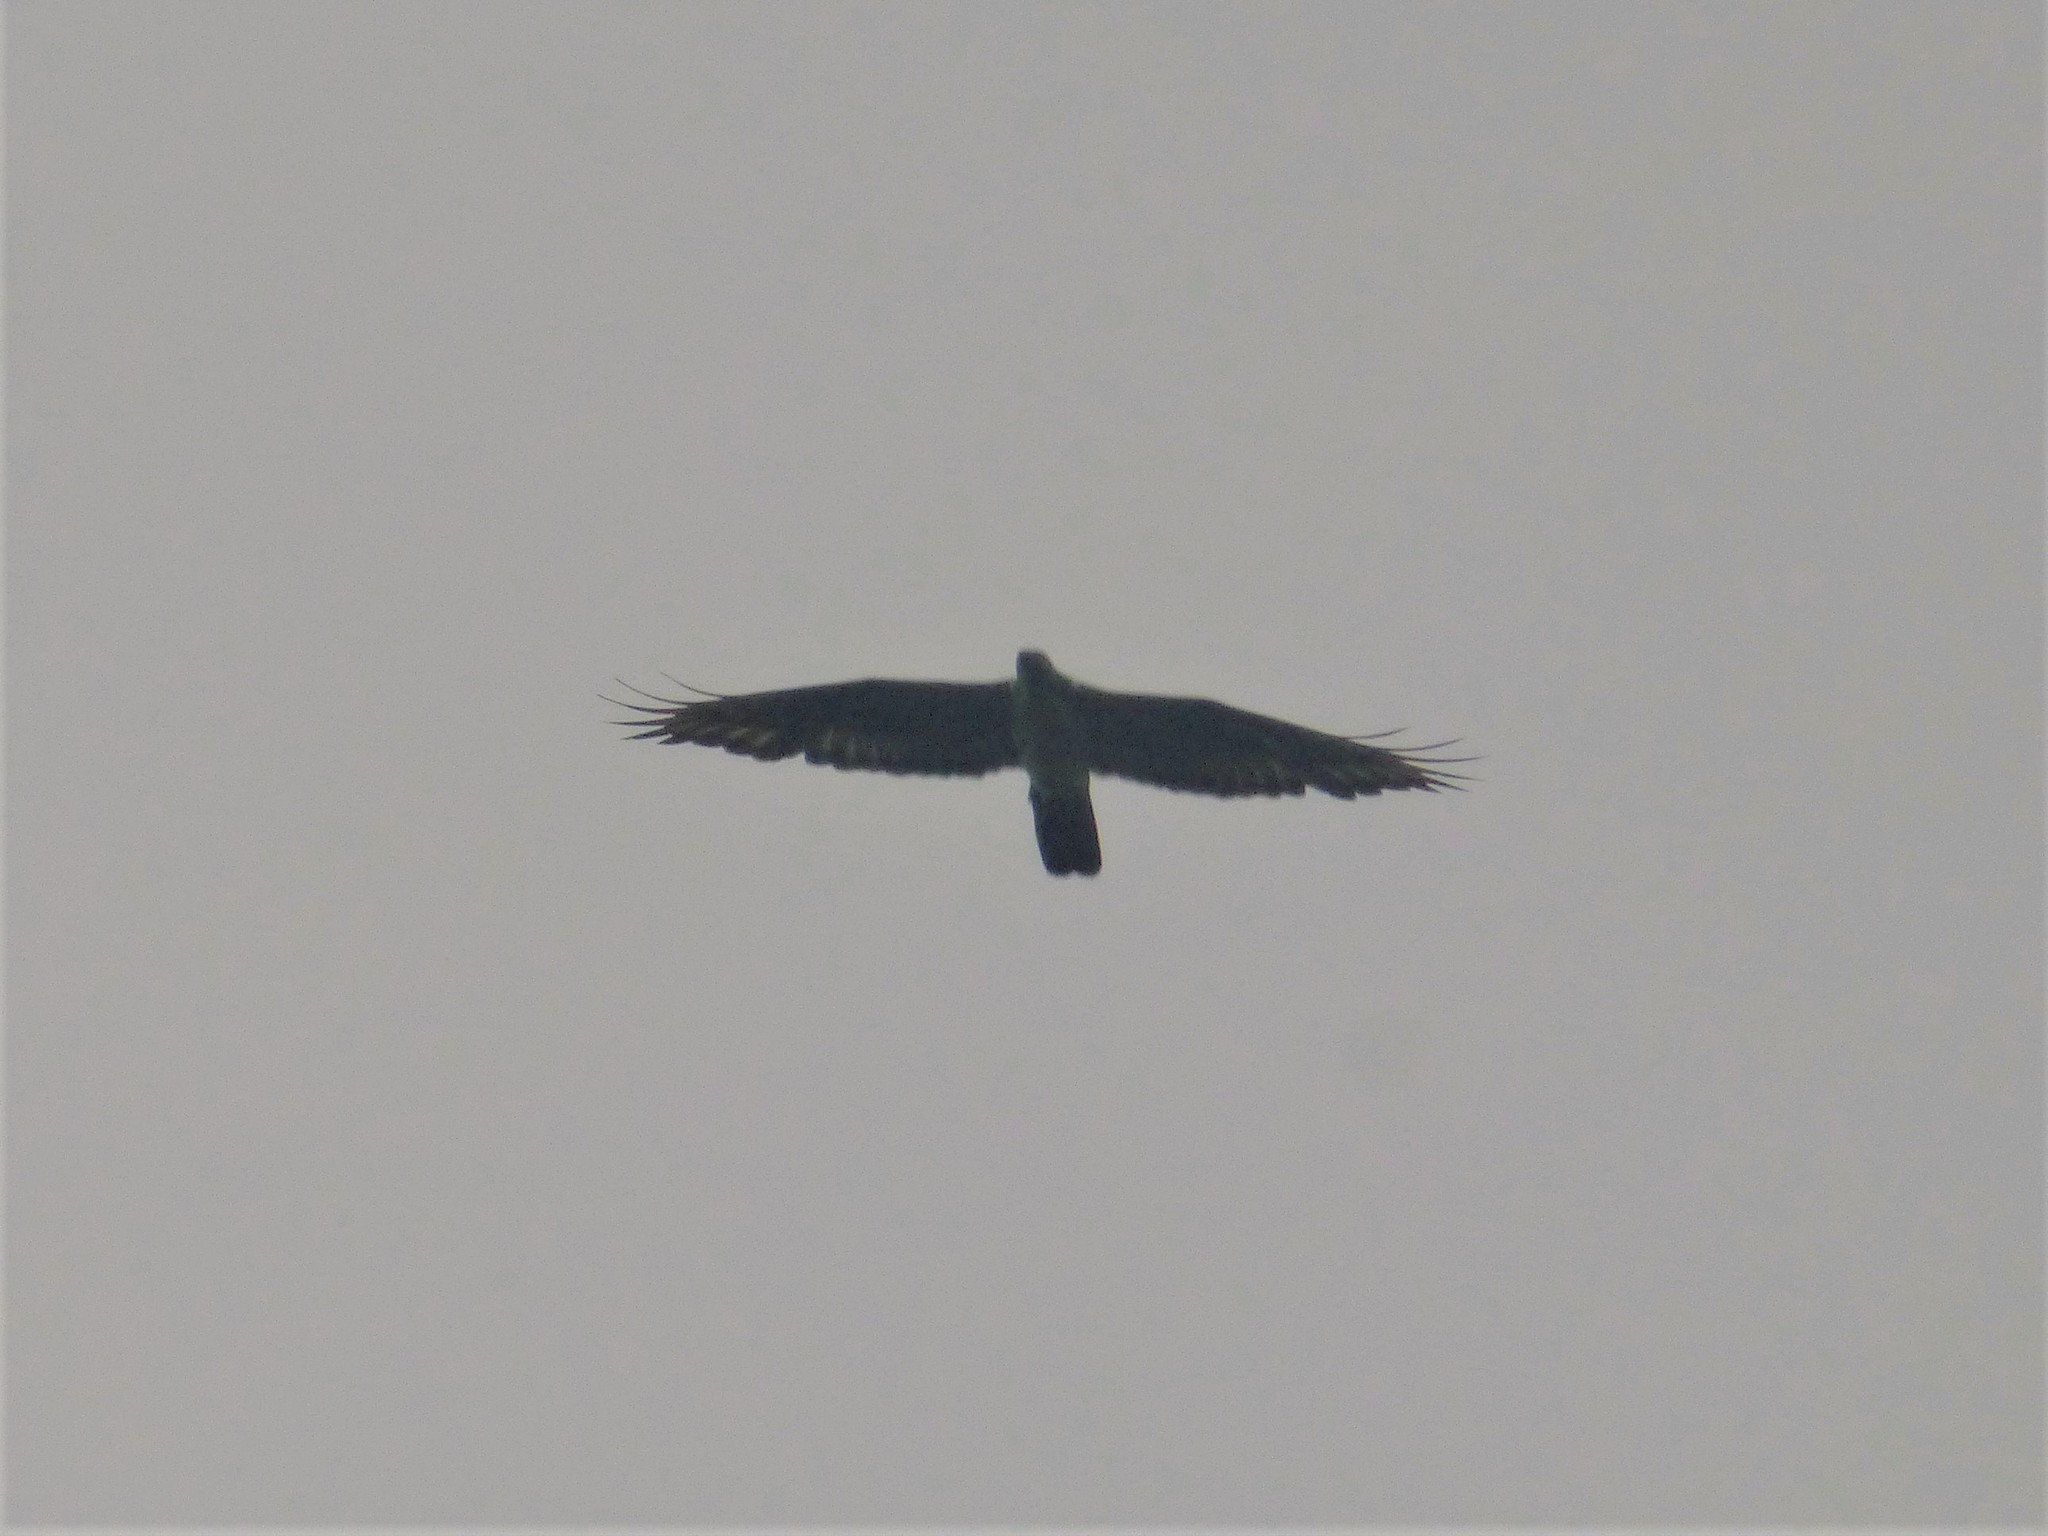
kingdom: Animalia
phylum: Chordata
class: Aves
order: Accipitriformes
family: Accipitridae
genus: Pernis
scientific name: Pernis apivorus
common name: European honey buzzard
